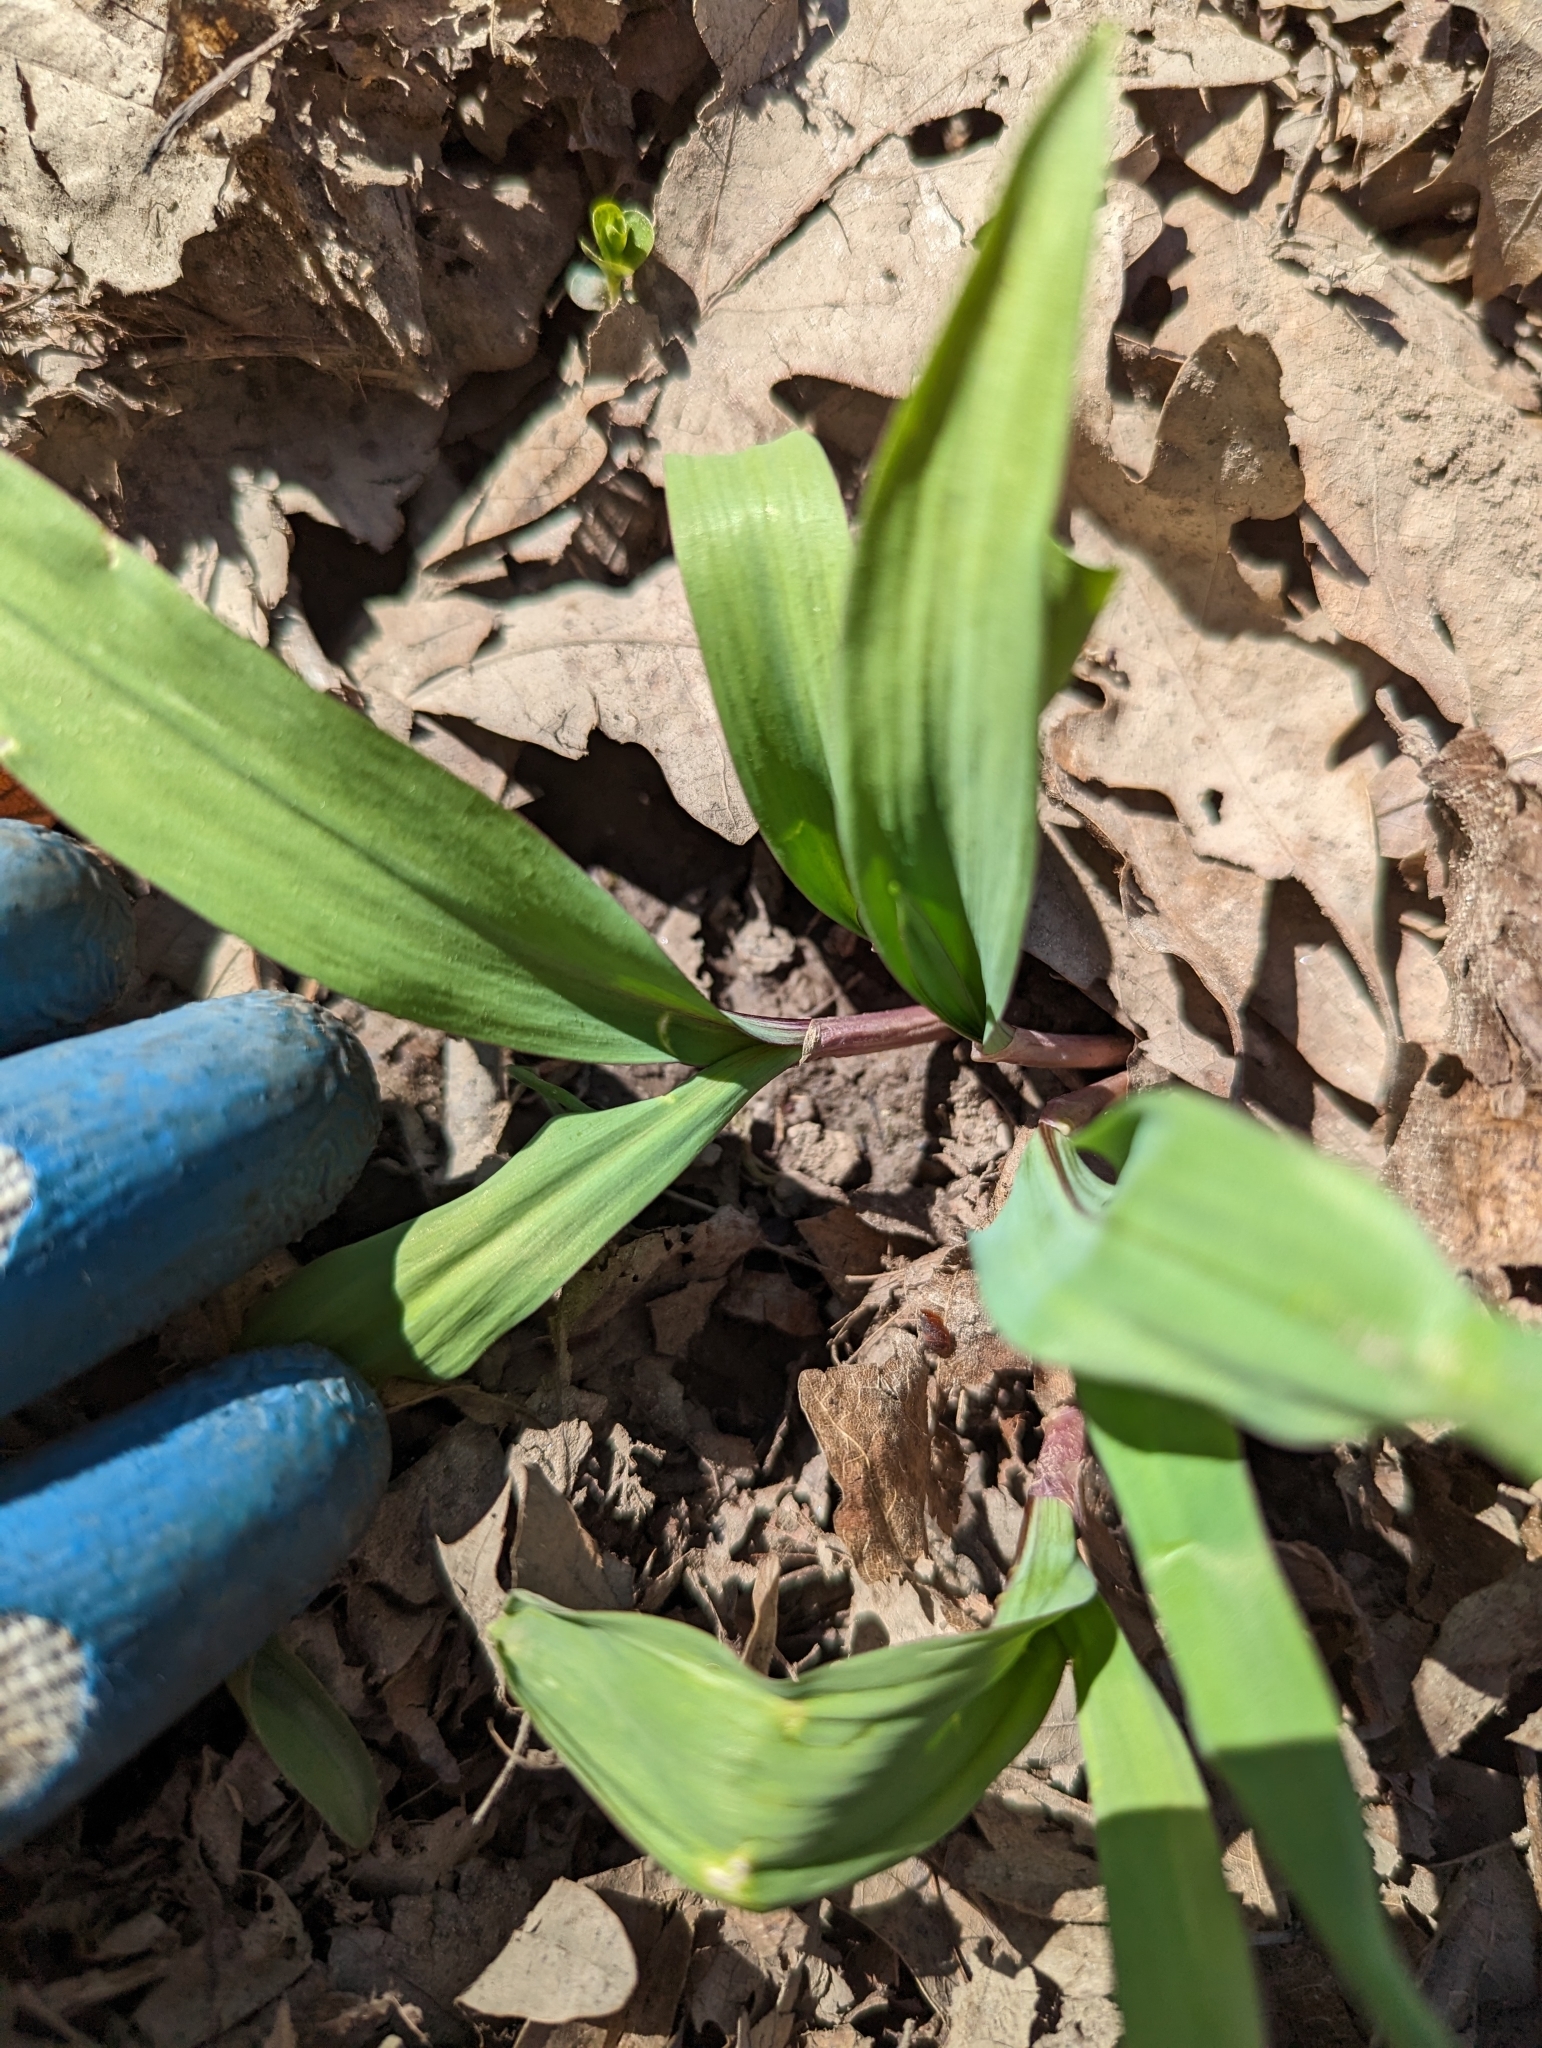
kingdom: Plantae
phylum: Tracheophyta
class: Liliopsida
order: Asparagales
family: Amaryllidaceae
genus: Allium
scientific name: Allium tricoccum
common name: Ramp
